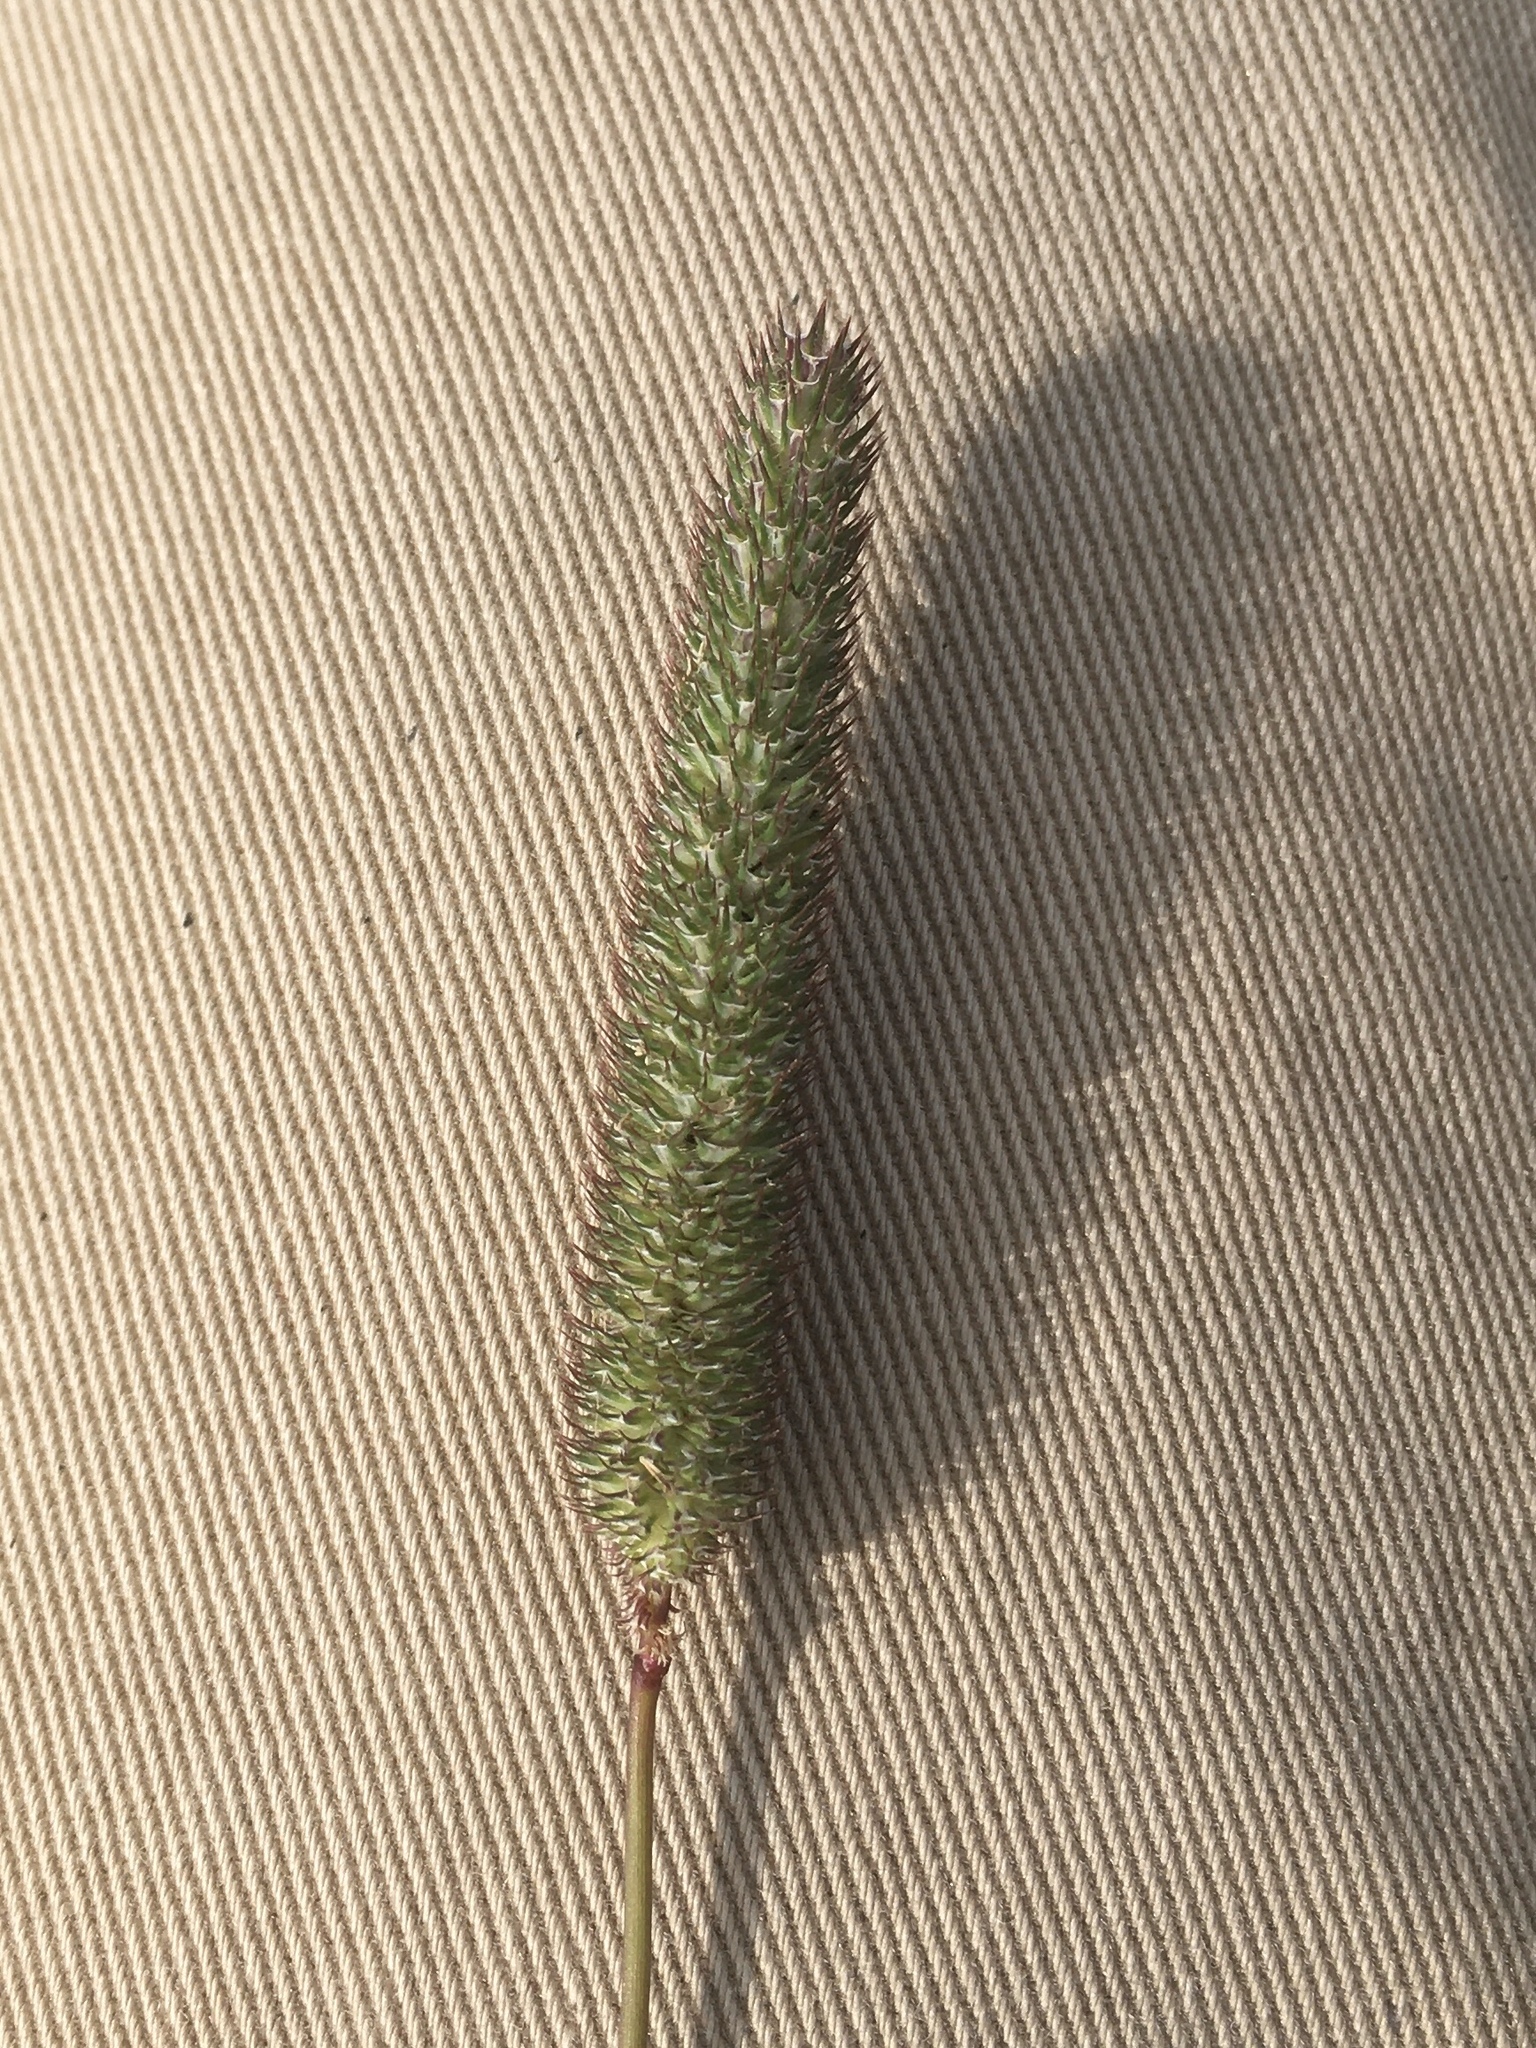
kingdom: Plantae
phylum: Tracheophyta
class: Liliopsida
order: Poales
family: Poaceae
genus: Phleum
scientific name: Phleum pratense
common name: Timothy grass
